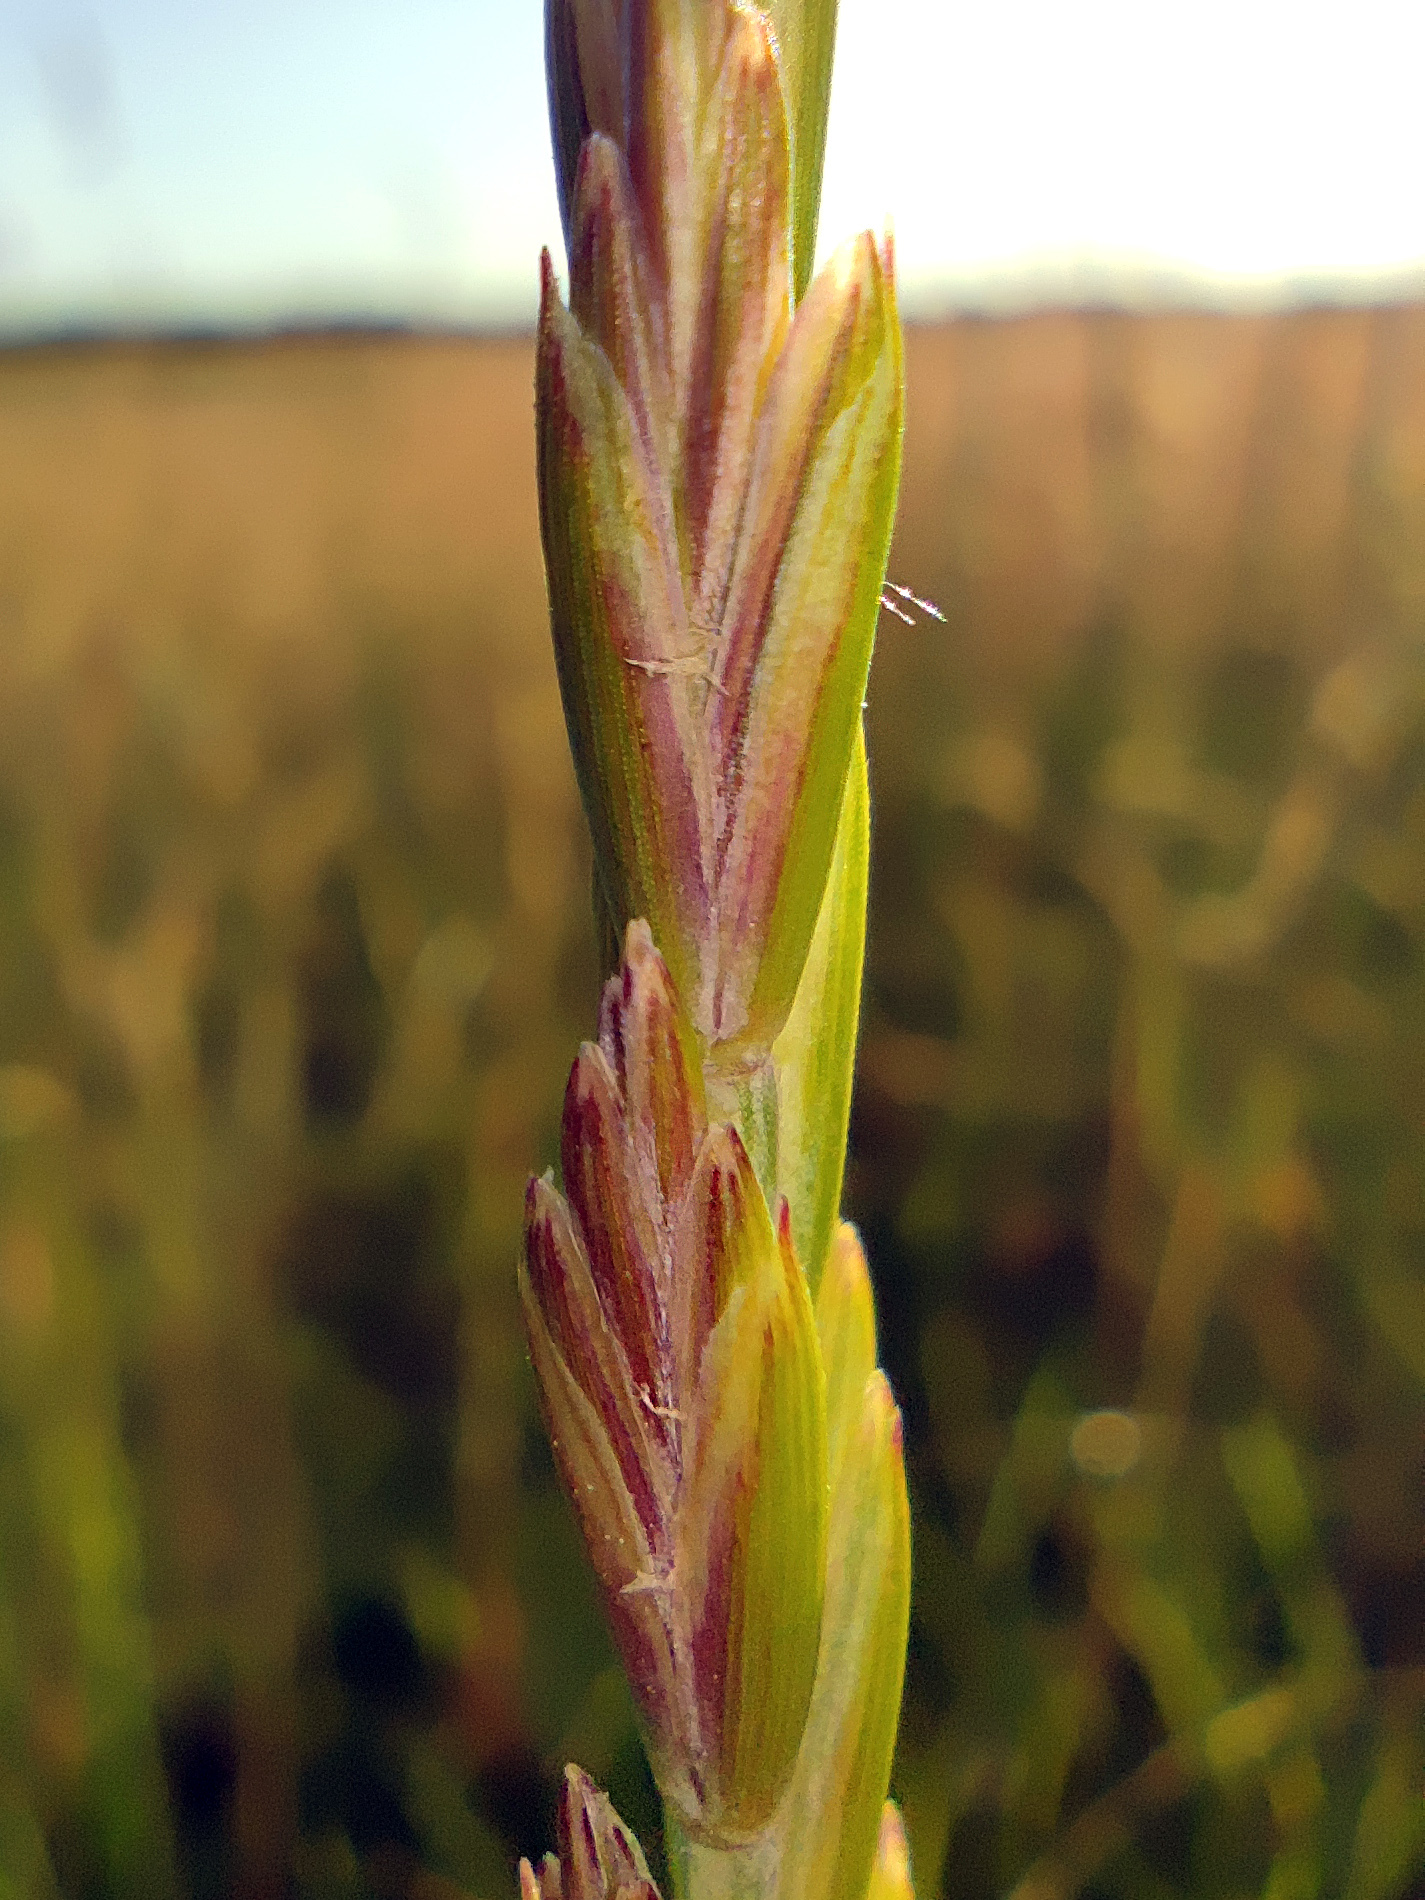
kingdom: Plantae
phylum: Tracheophyta
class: Liliopsida
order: Poales
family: Poaceae
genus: Elymus
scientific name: Elymus repens
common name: Quackgrass
